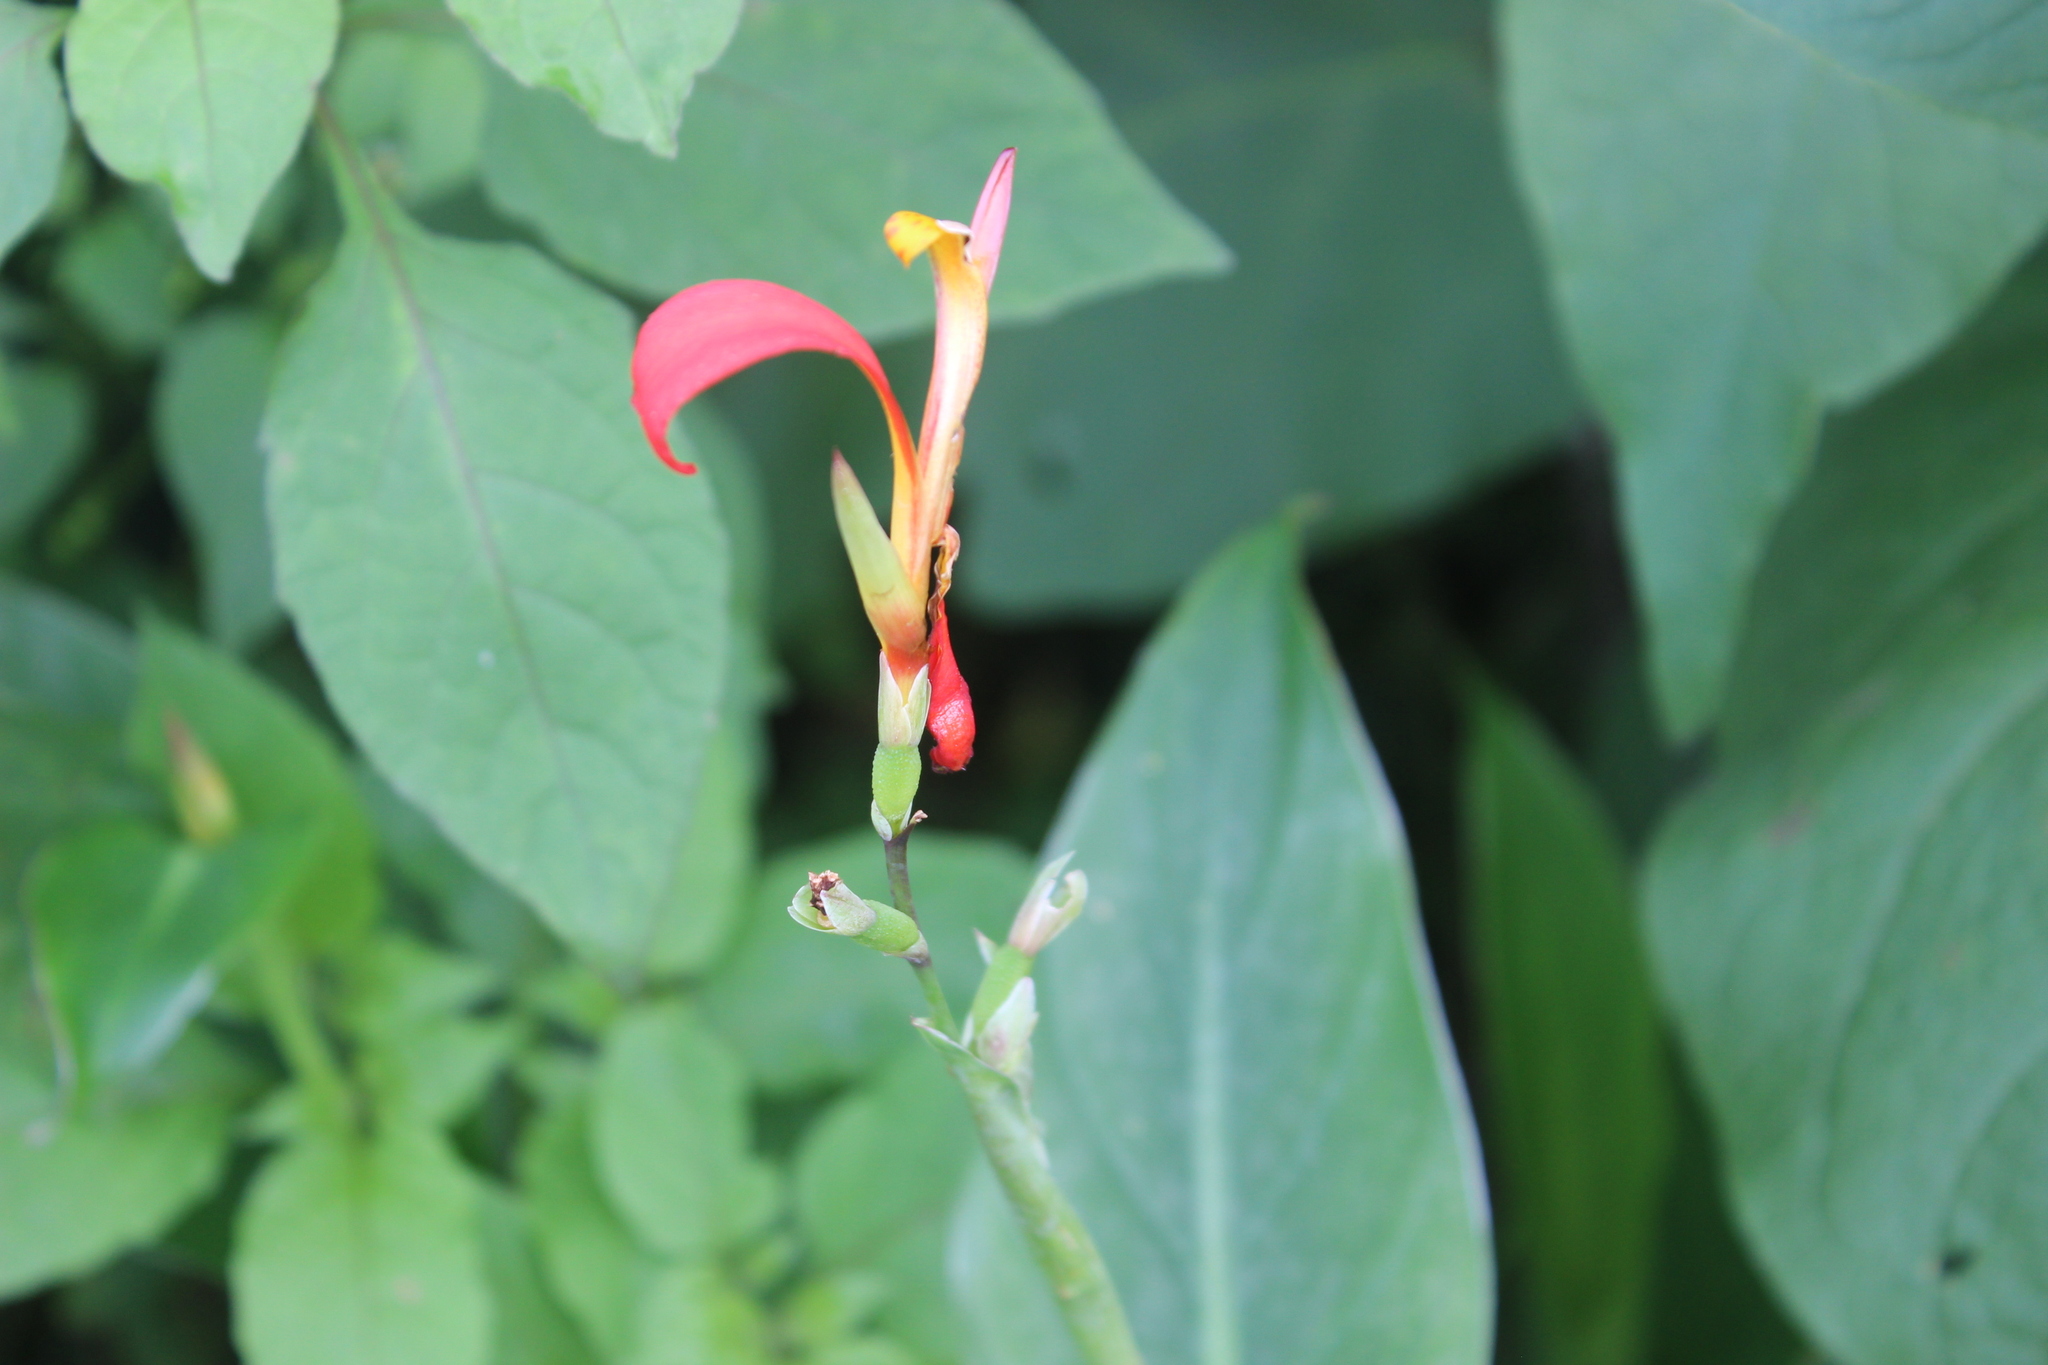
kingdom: Plantae
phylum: Tracheophyta
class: Liliopsida
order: Zingiberales
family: Cannaceae
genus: Canna
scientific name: Canna indica
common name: Indian shot
